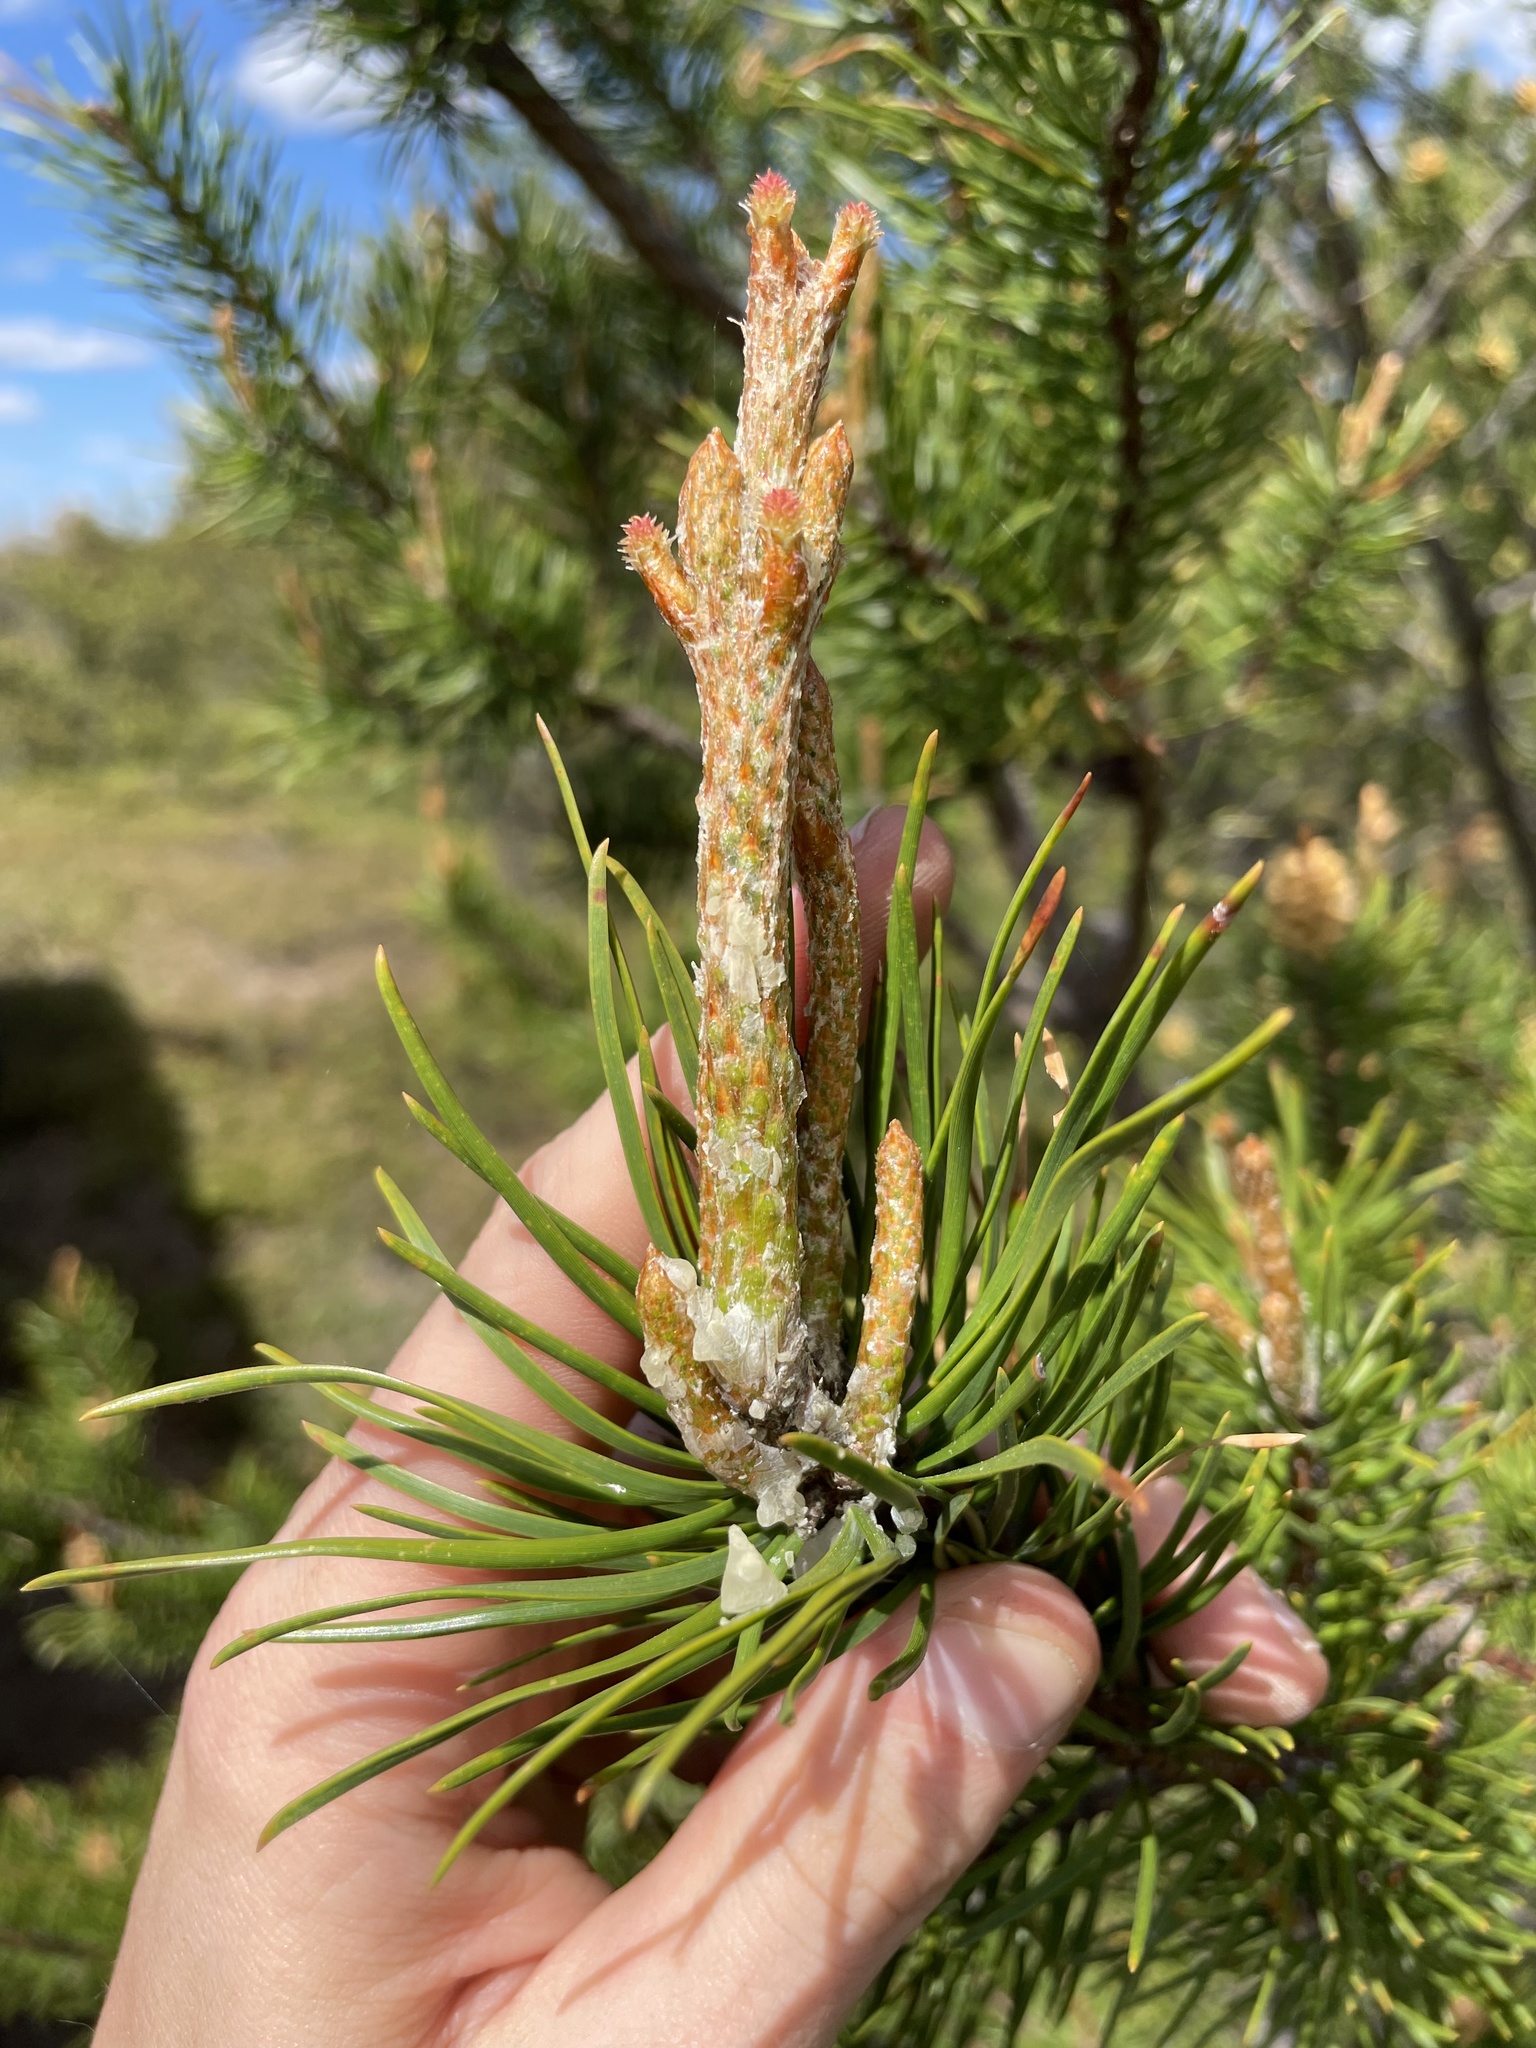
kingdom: Plantae
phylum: Tracheophyta
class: Pinopsida
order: Pinales
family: Pinaceae
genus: Pinus
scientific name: Pinus banksiana
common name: Jack pine
